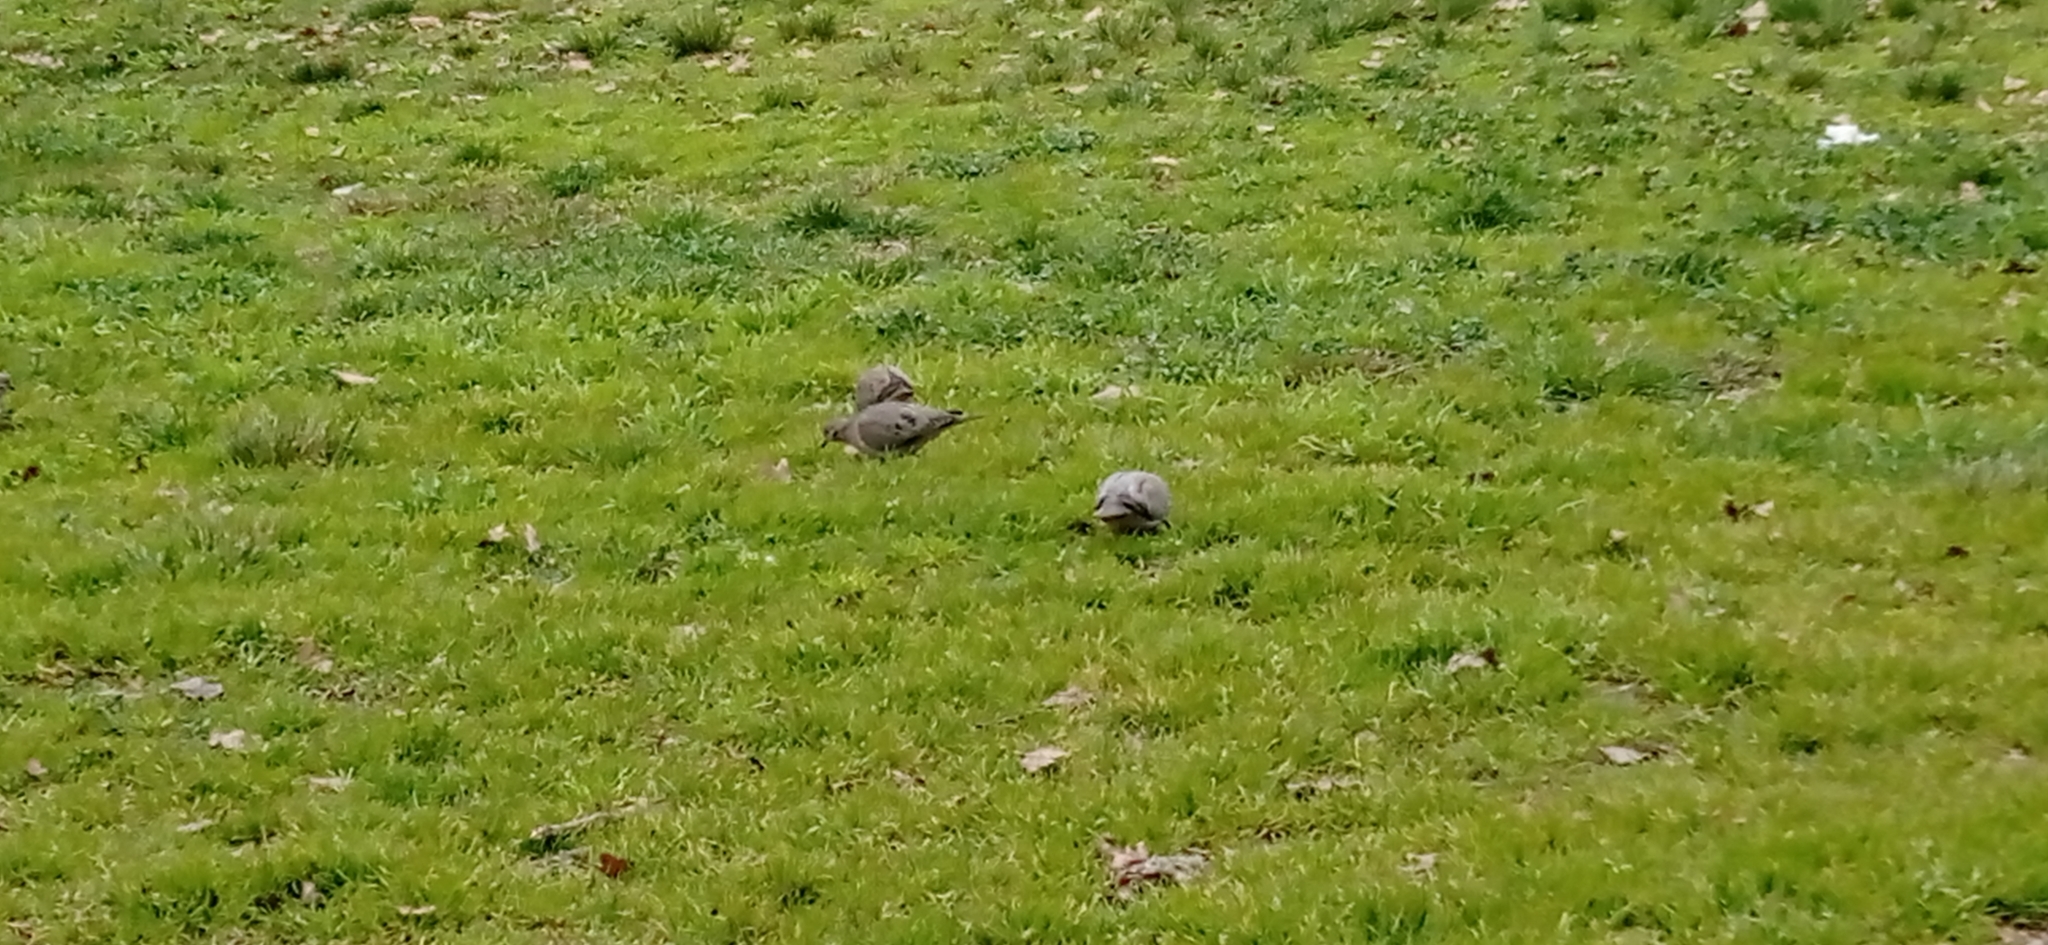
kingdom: Animalia
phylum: Chordata
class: Aves
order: Columbiformes
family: Columbidae
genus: Zenaida
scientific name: Zenaida auriculata
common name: Eared dove
